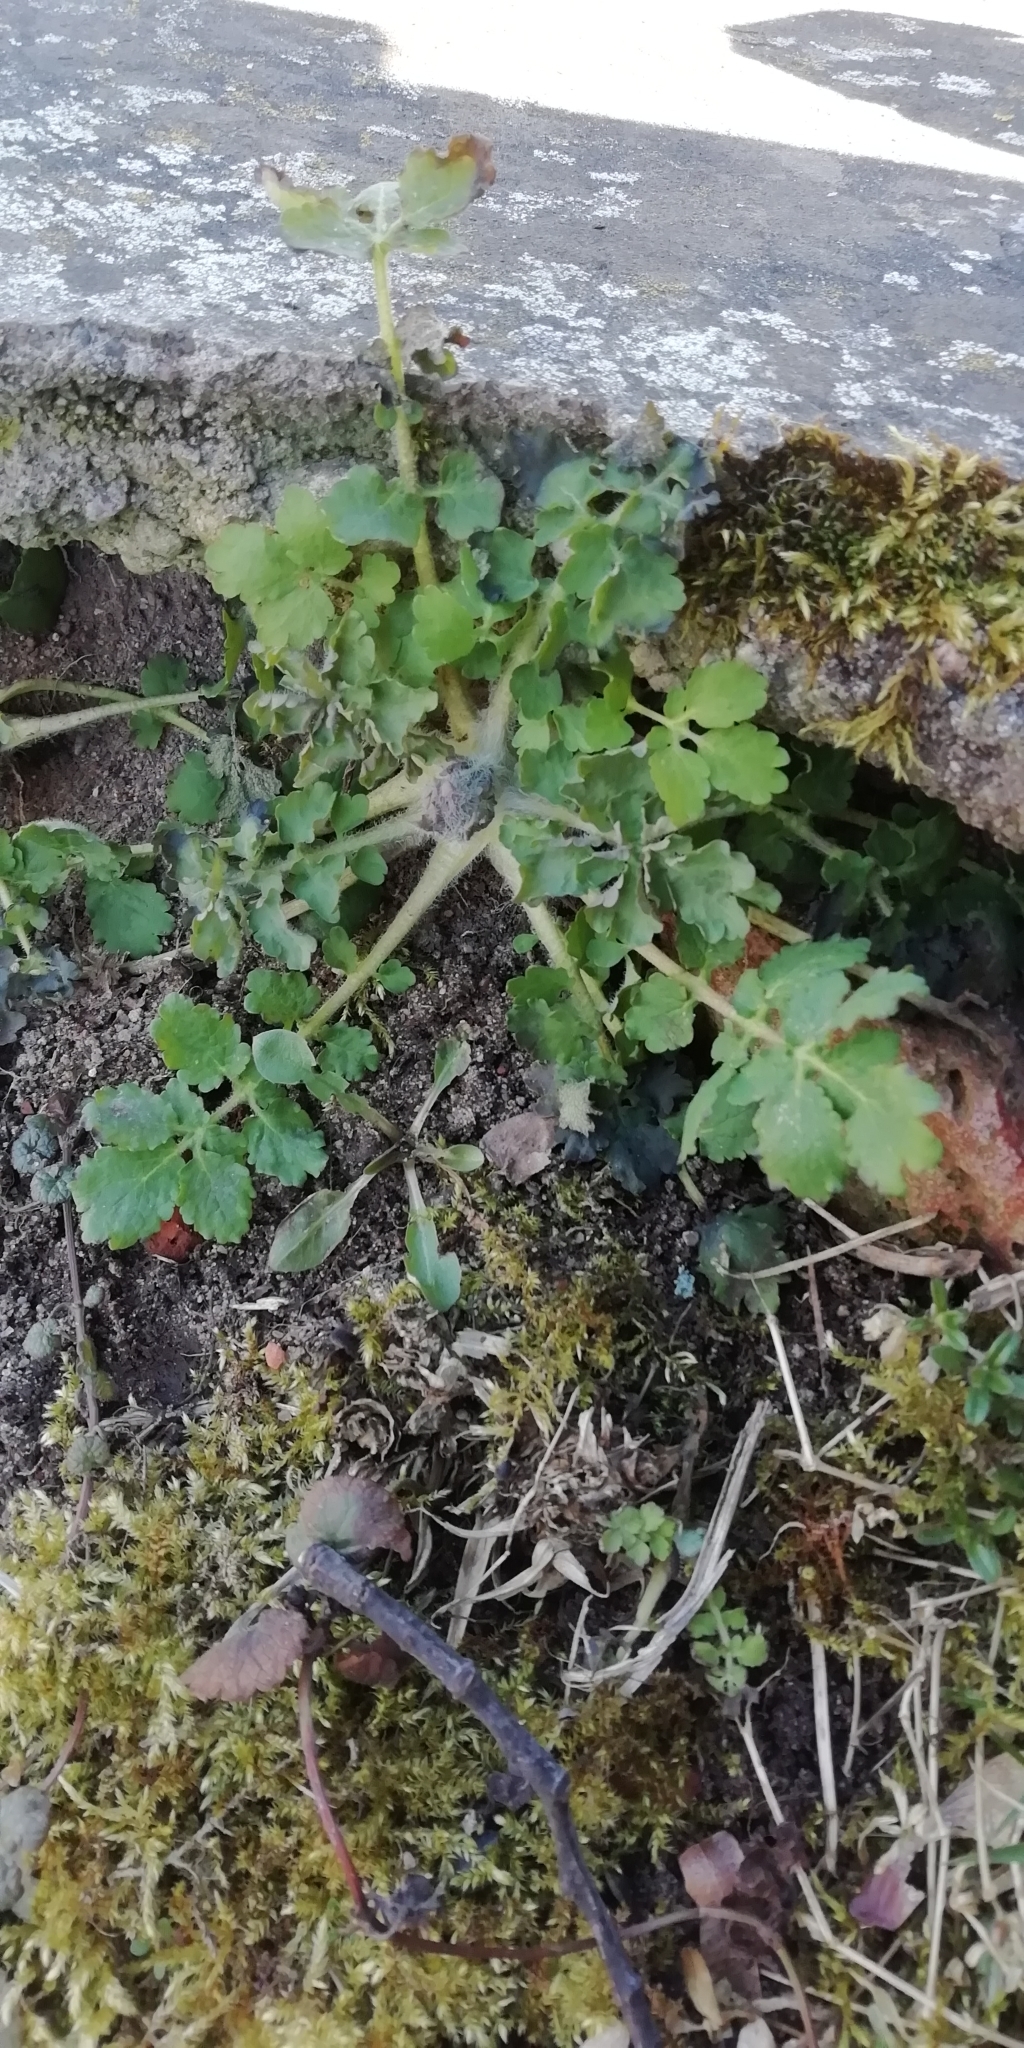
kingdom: Plantae
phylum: Tracheophyta
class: Magnoliopsida
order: Ranunculales
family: Papaveraceae
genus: Chelidonium
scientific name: Chelidonium majus
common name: Greater celandine
